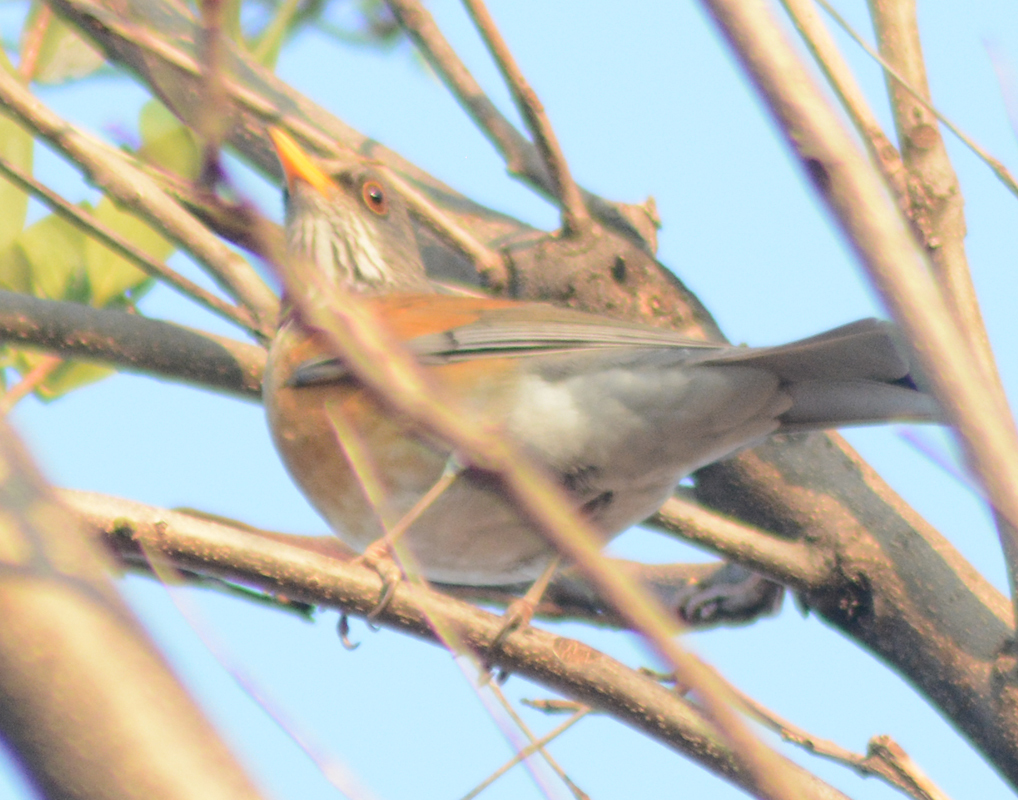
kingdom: Animalia
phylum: Chordata
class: Aves
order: Passeriformes
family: Turdidae
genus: Turdus
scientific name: Turdus rufopalliatus
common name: Rufous-backed robin
